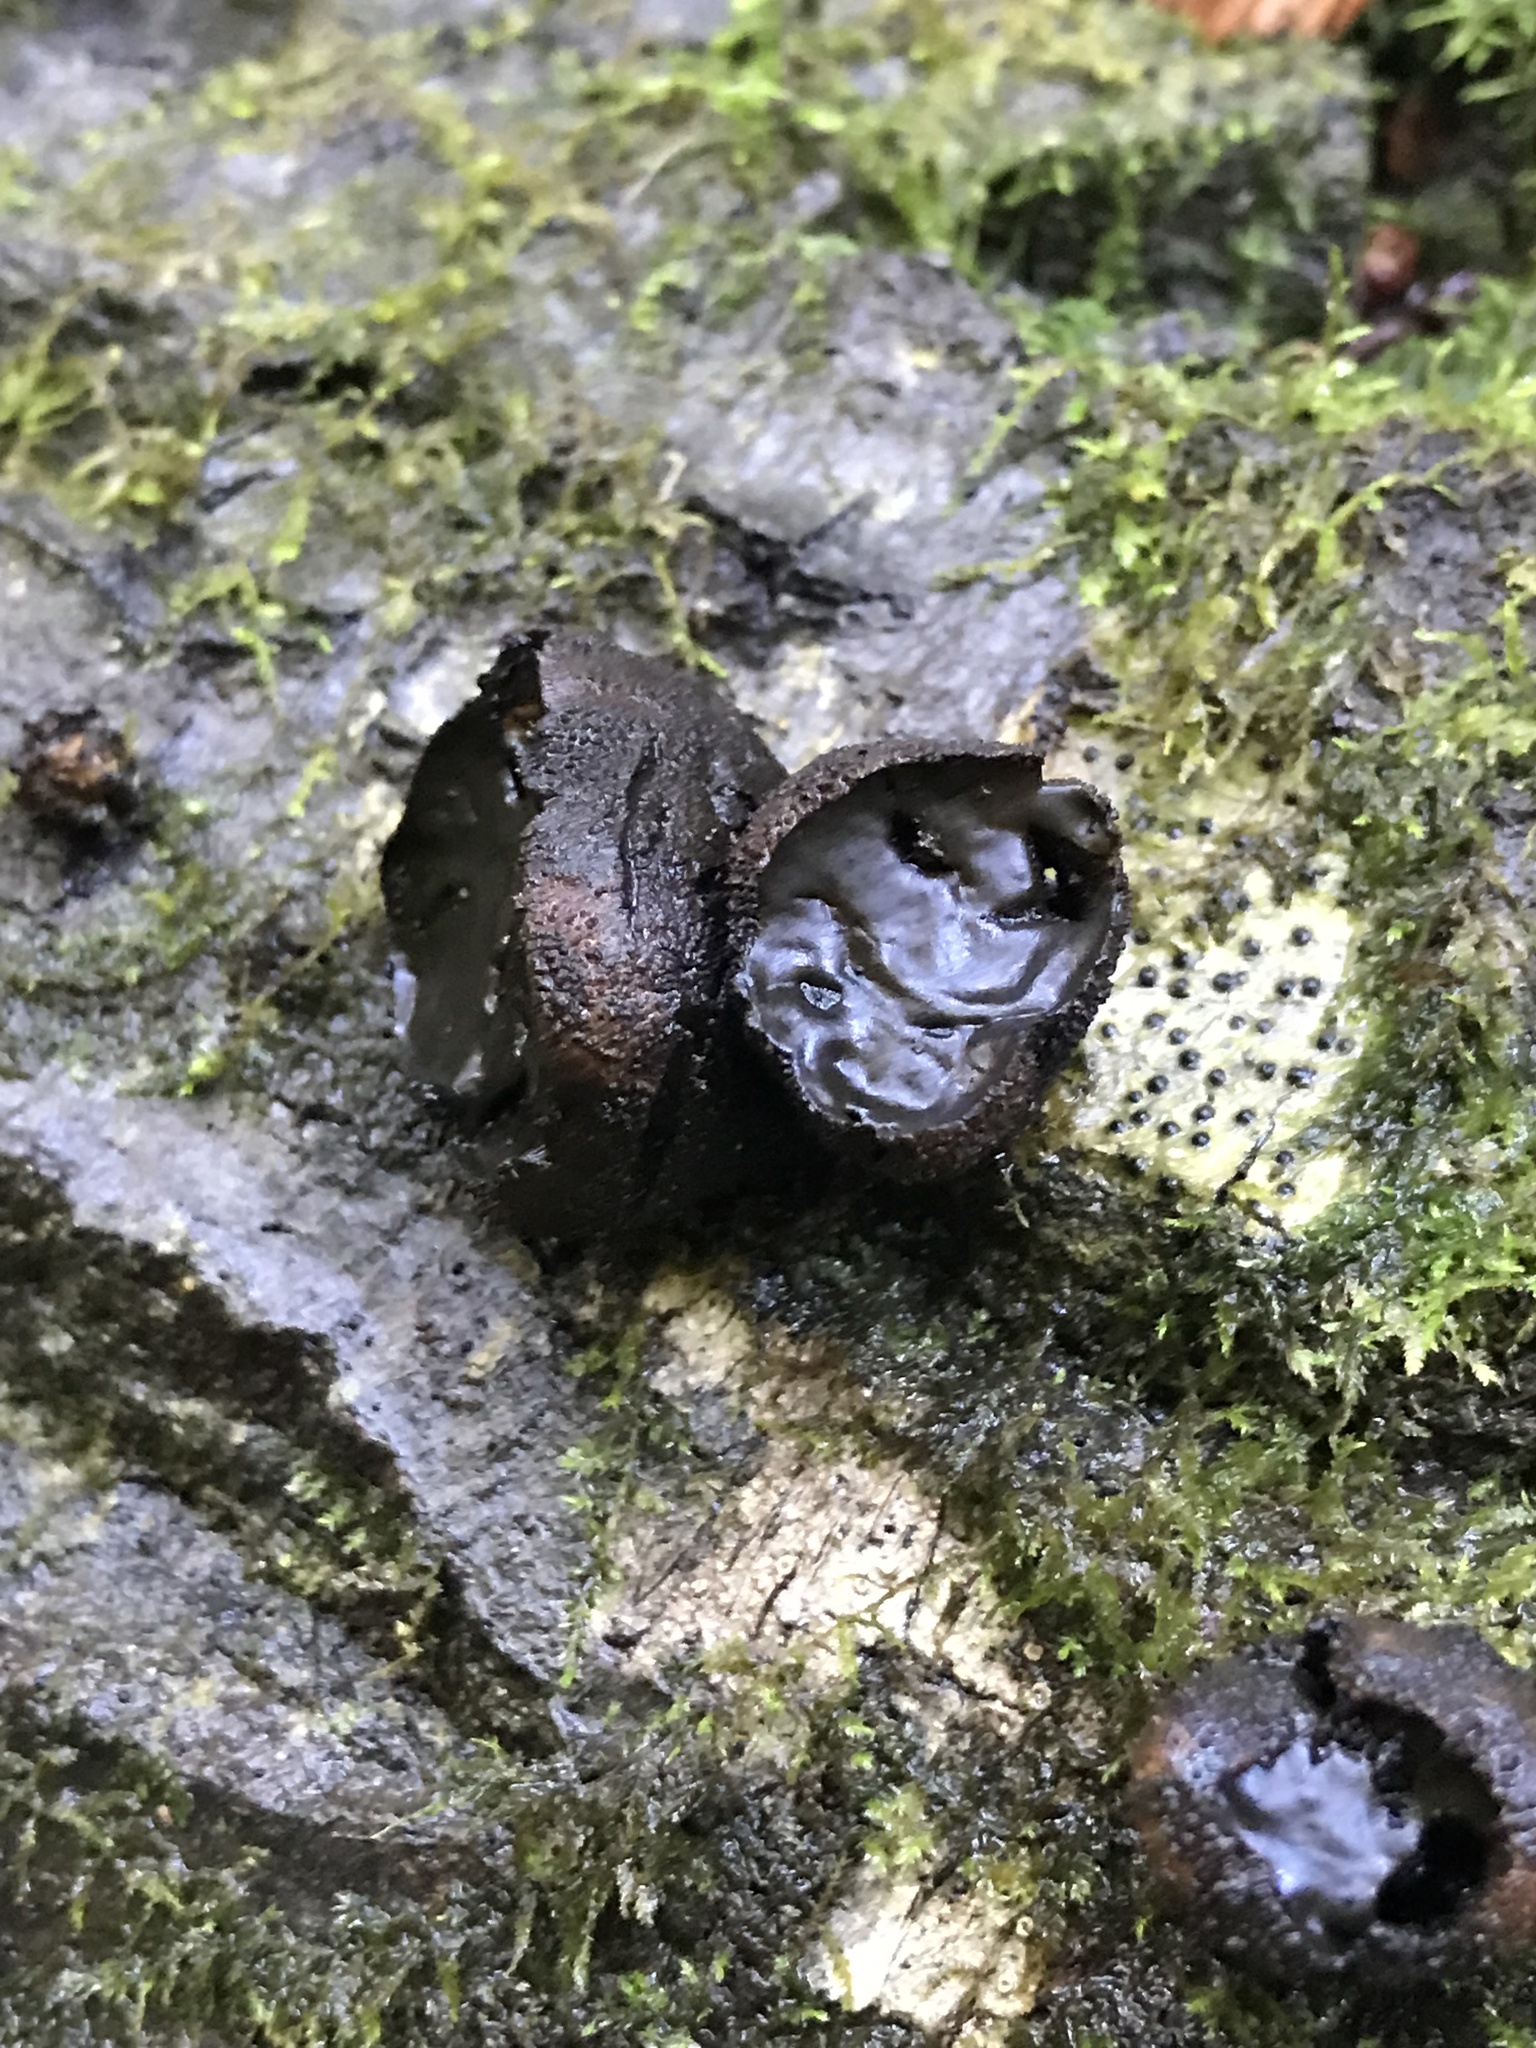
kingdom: Fungi
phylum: Ascomycota
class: Leotiomycetes
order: Phacidiales
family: Phacidiaceae
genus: Bulgaria
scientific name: Bulgaria inquinans
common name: Black bulgar
